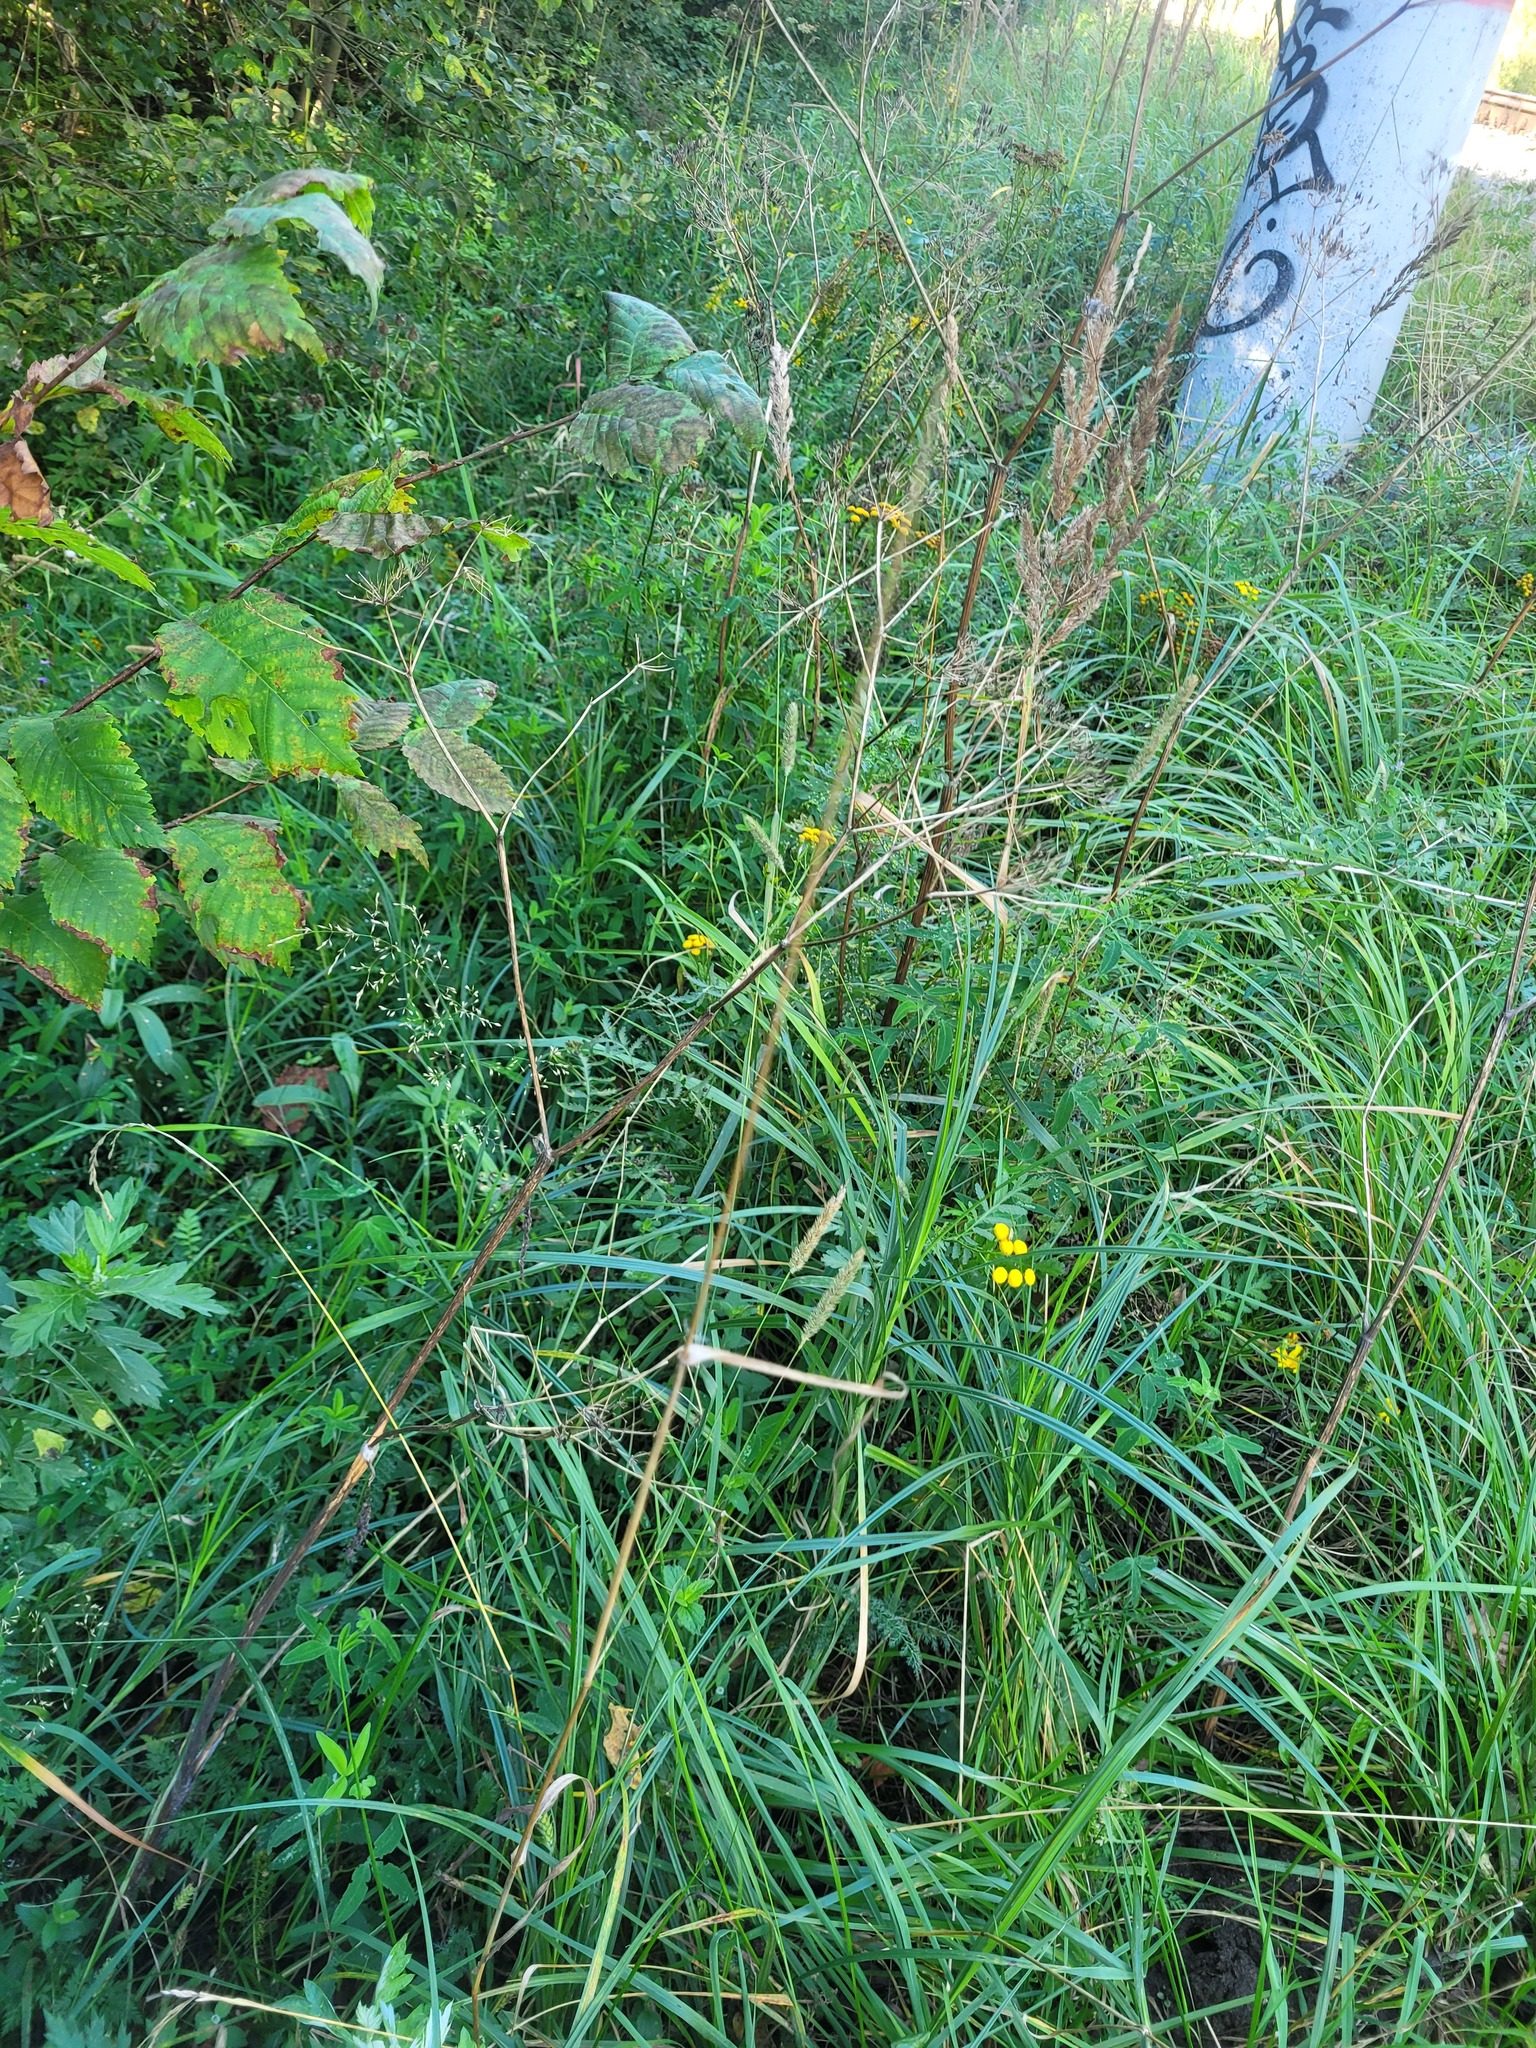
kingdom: Plantae
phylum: Tracheophyta
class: Liliopsida
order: Poales
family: Cyperaceae
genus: Carex
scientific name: Carex hirta
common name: Hairy sedge
